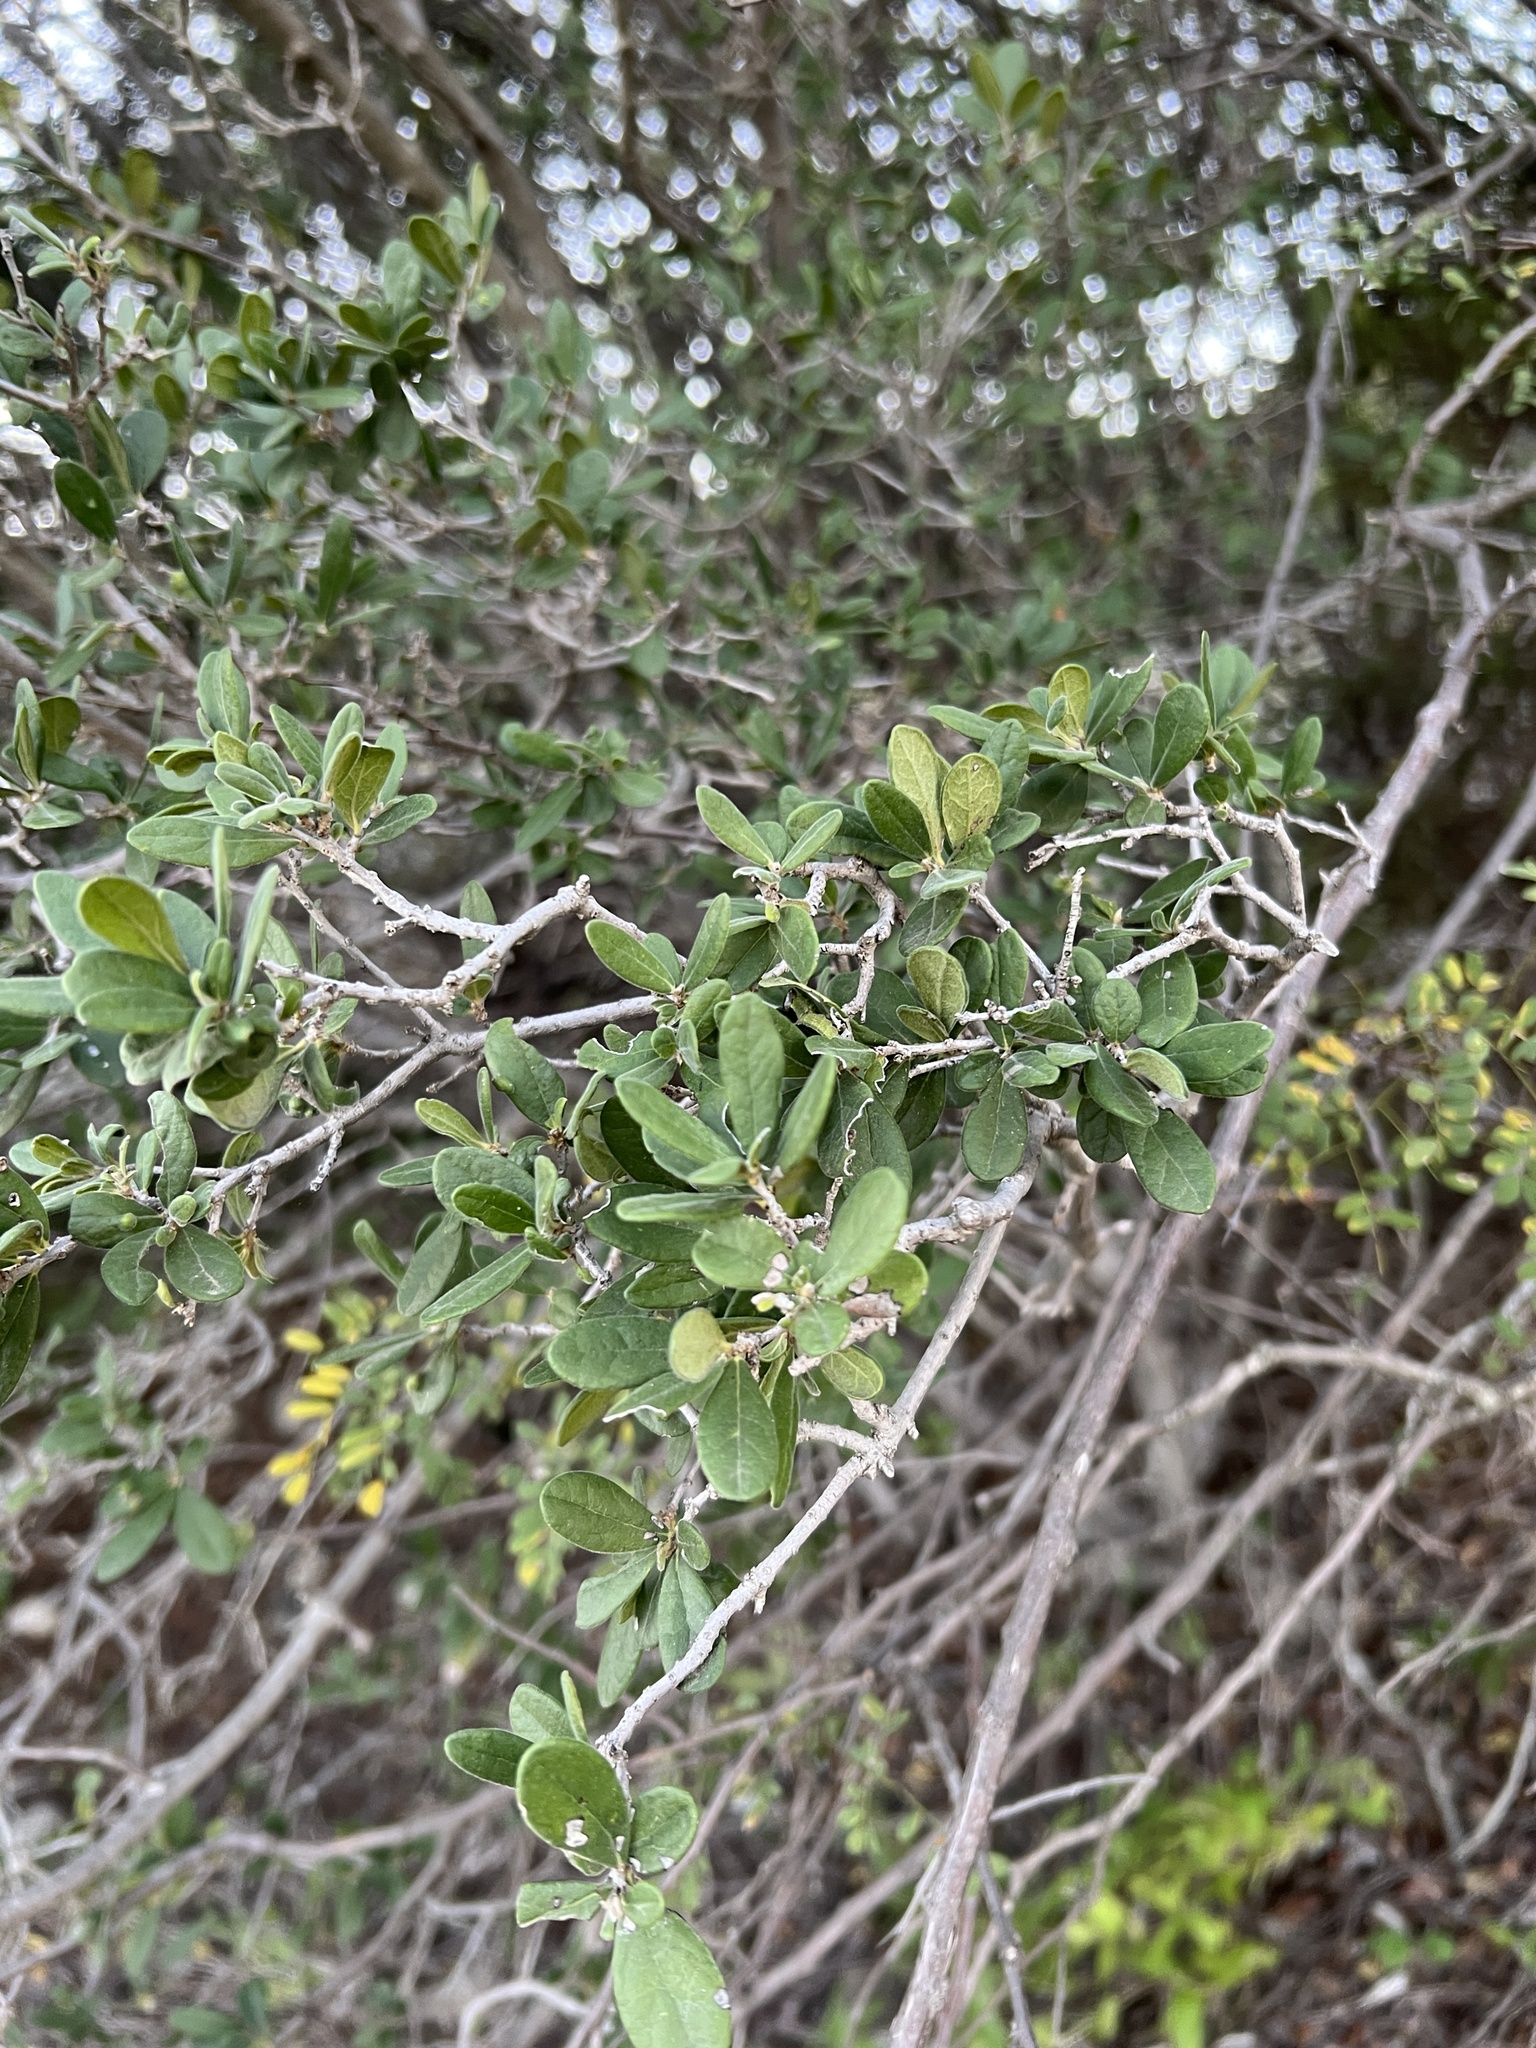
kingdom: Plantae
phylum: Tracheophyta
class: Magnoliopsida
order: Ericales
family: Ebenaceae
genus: Diospyros
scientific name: Diospyros texana
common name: Texas persimmon
